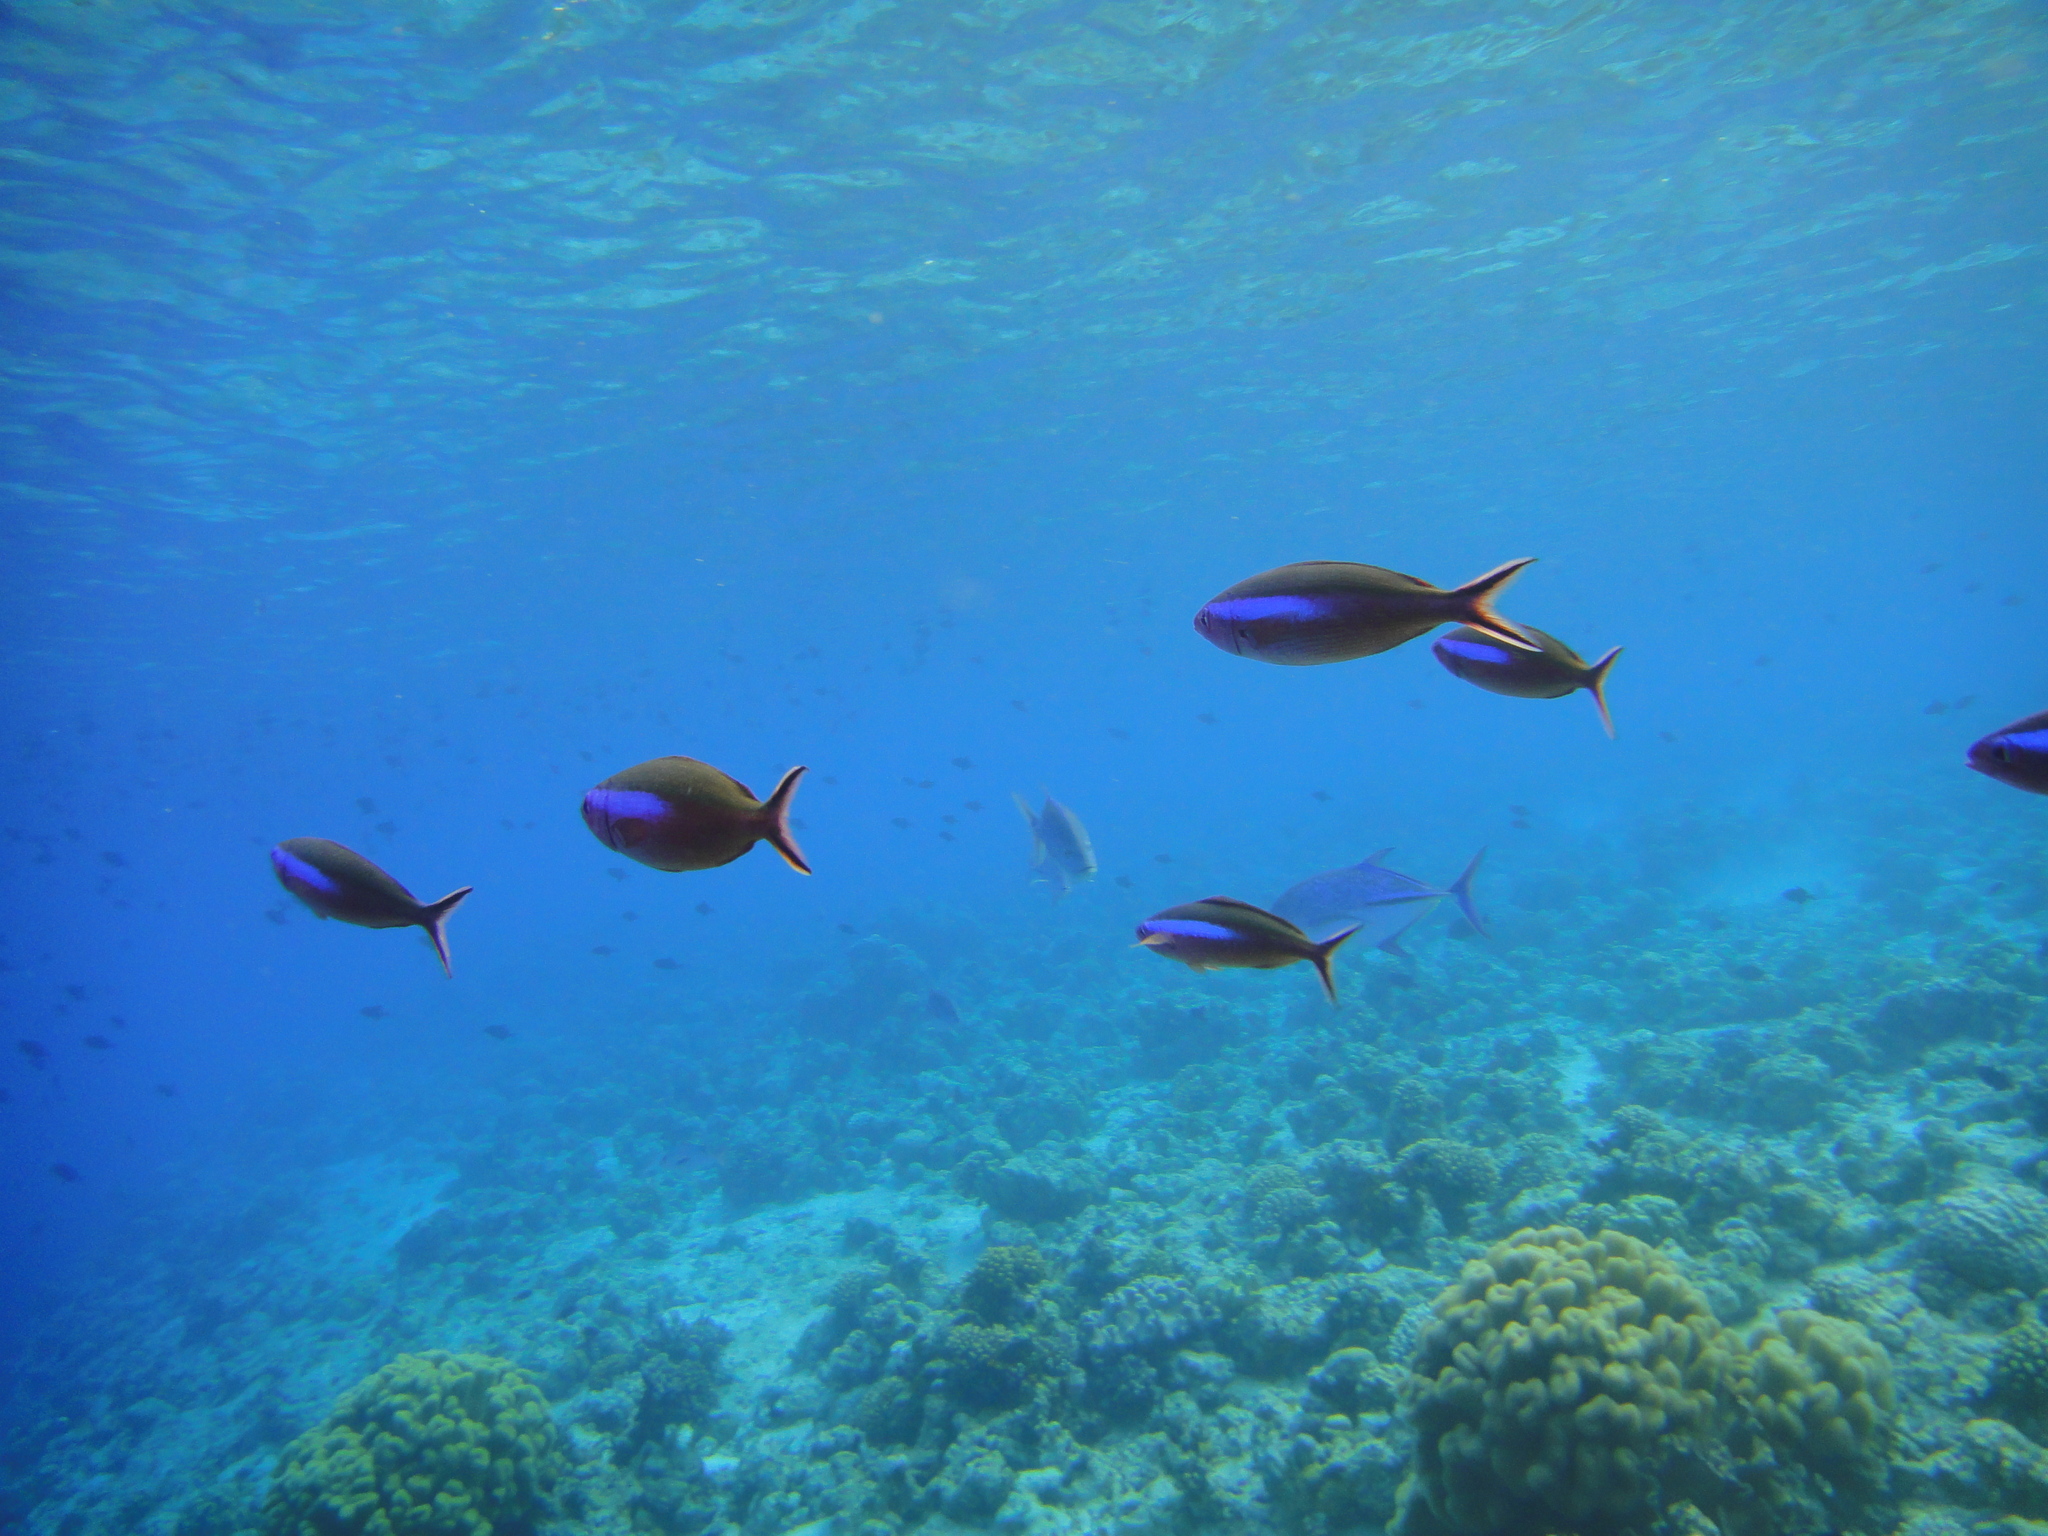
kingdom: Animalia
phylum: Chordata
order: Perciformes
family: Caesionidae
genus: Pterocaesio
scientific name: Pterocaesio tile
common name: Dark-banded fusilier
